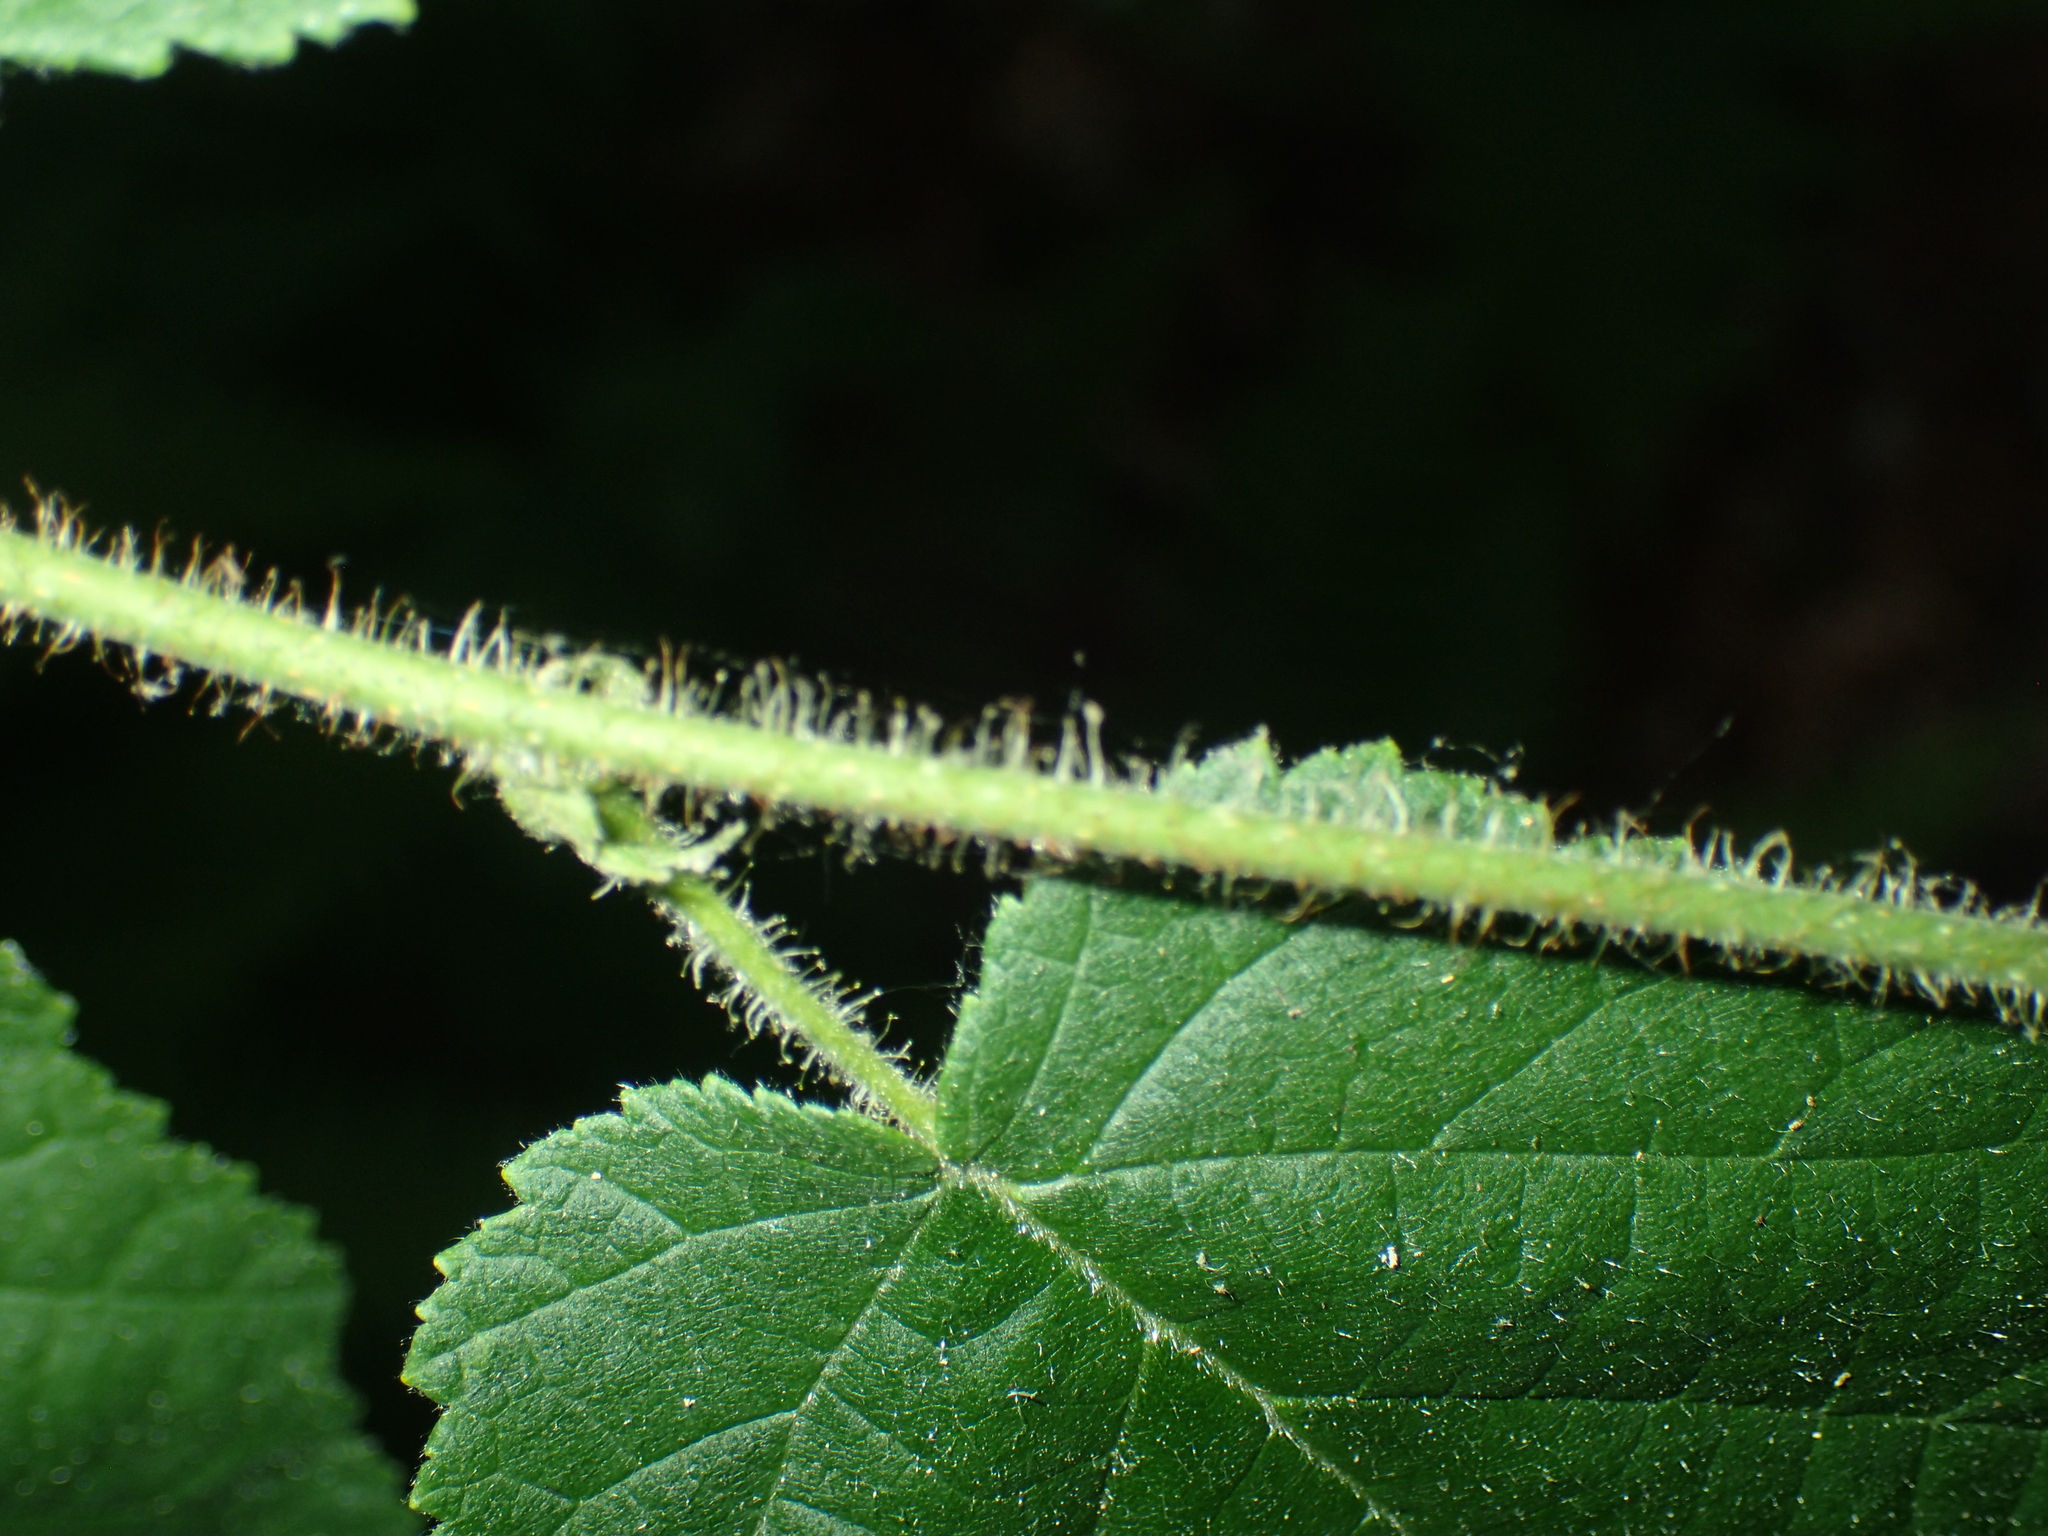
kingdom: Plantae
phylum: Tracheophyta
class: Magnoliopsida
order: Fagales
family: Betulaceae
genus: Corylus
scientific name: Corylus americana
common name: American hazel
